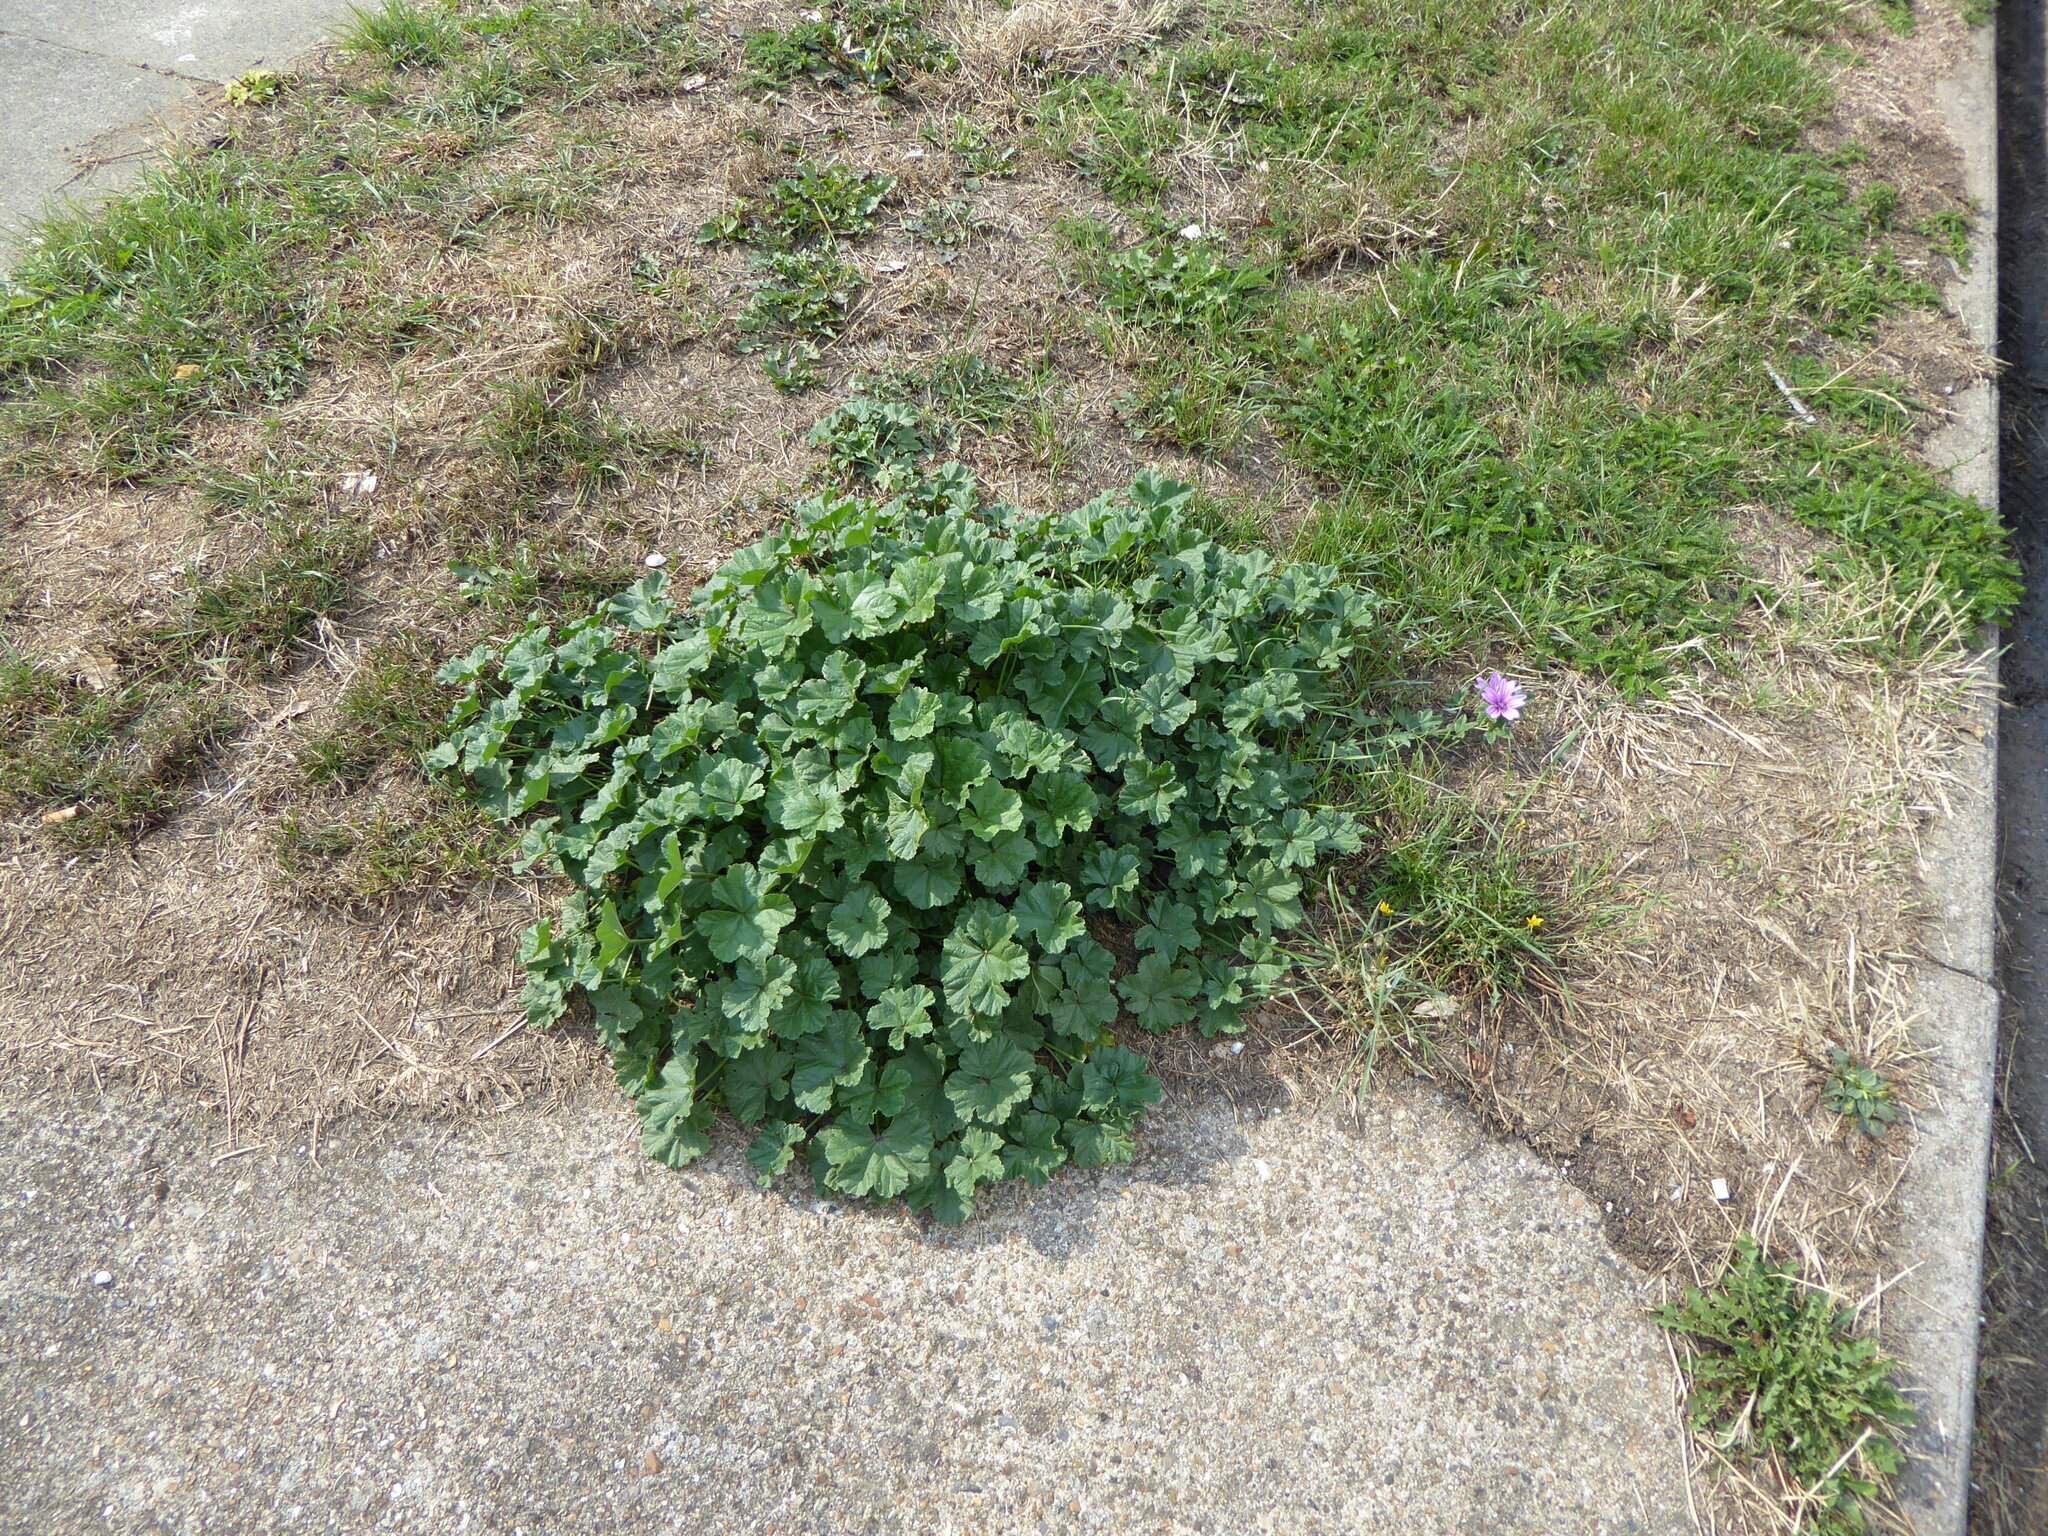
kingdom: Plantae
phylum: Tracheophyta
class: Magnoliopsida
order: Malvales
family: Malvaceae
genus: Malva
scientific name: Malva sylvestris
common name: Common mallow
